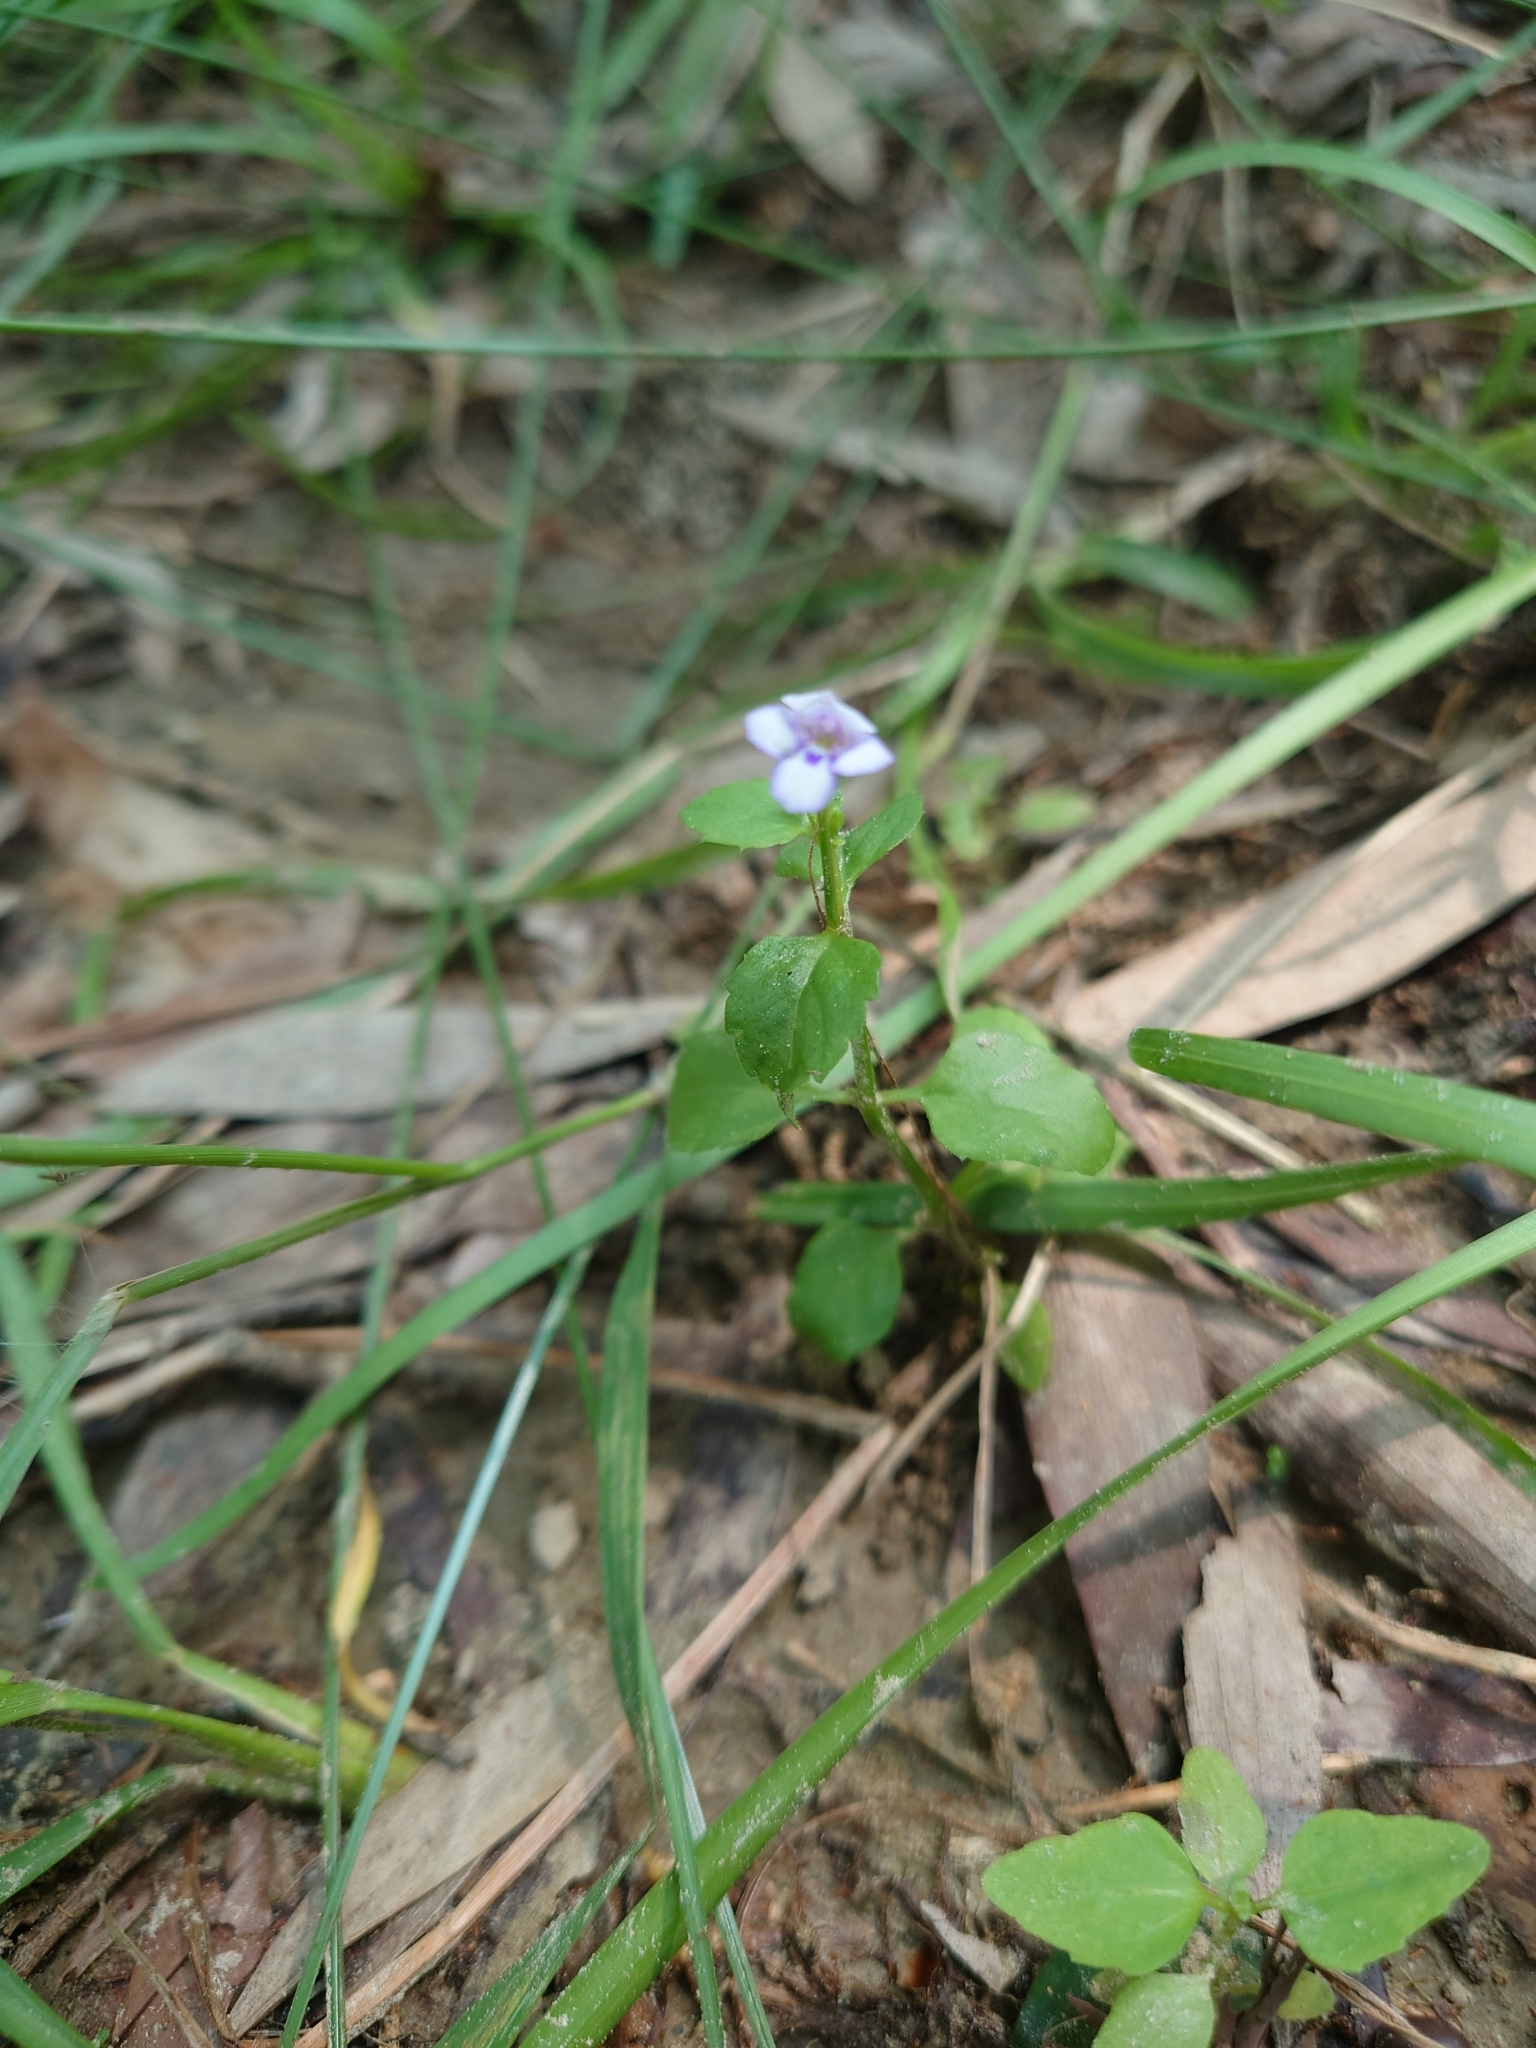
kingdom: Plantae
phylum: Tracheophyta
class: Magnoliopsida
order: Lamiales
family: Linderniaceae
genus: Torenia
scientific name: Torenia crustacea
